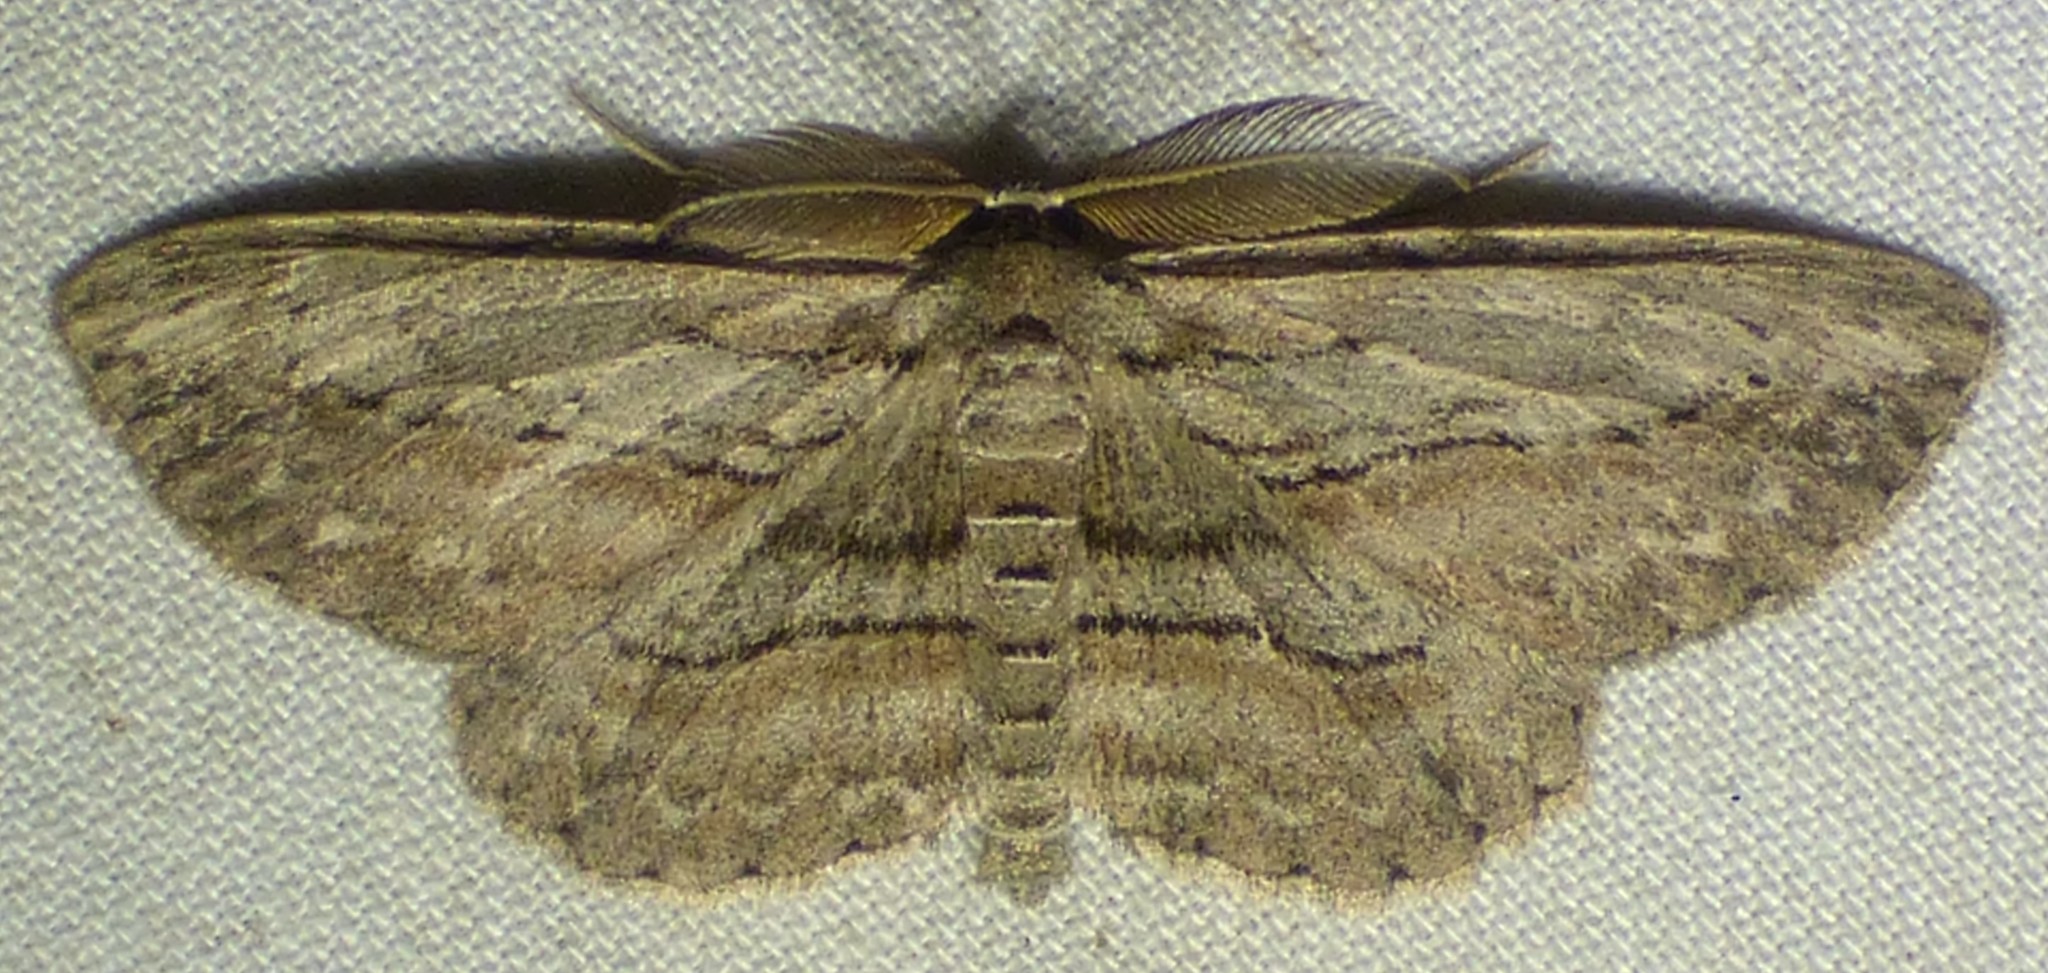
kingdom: Animalia
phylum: Arthropoda
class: Insecta
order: Lepidoptera
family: Geometridae
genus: Glena
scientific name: Glena plumosaria
